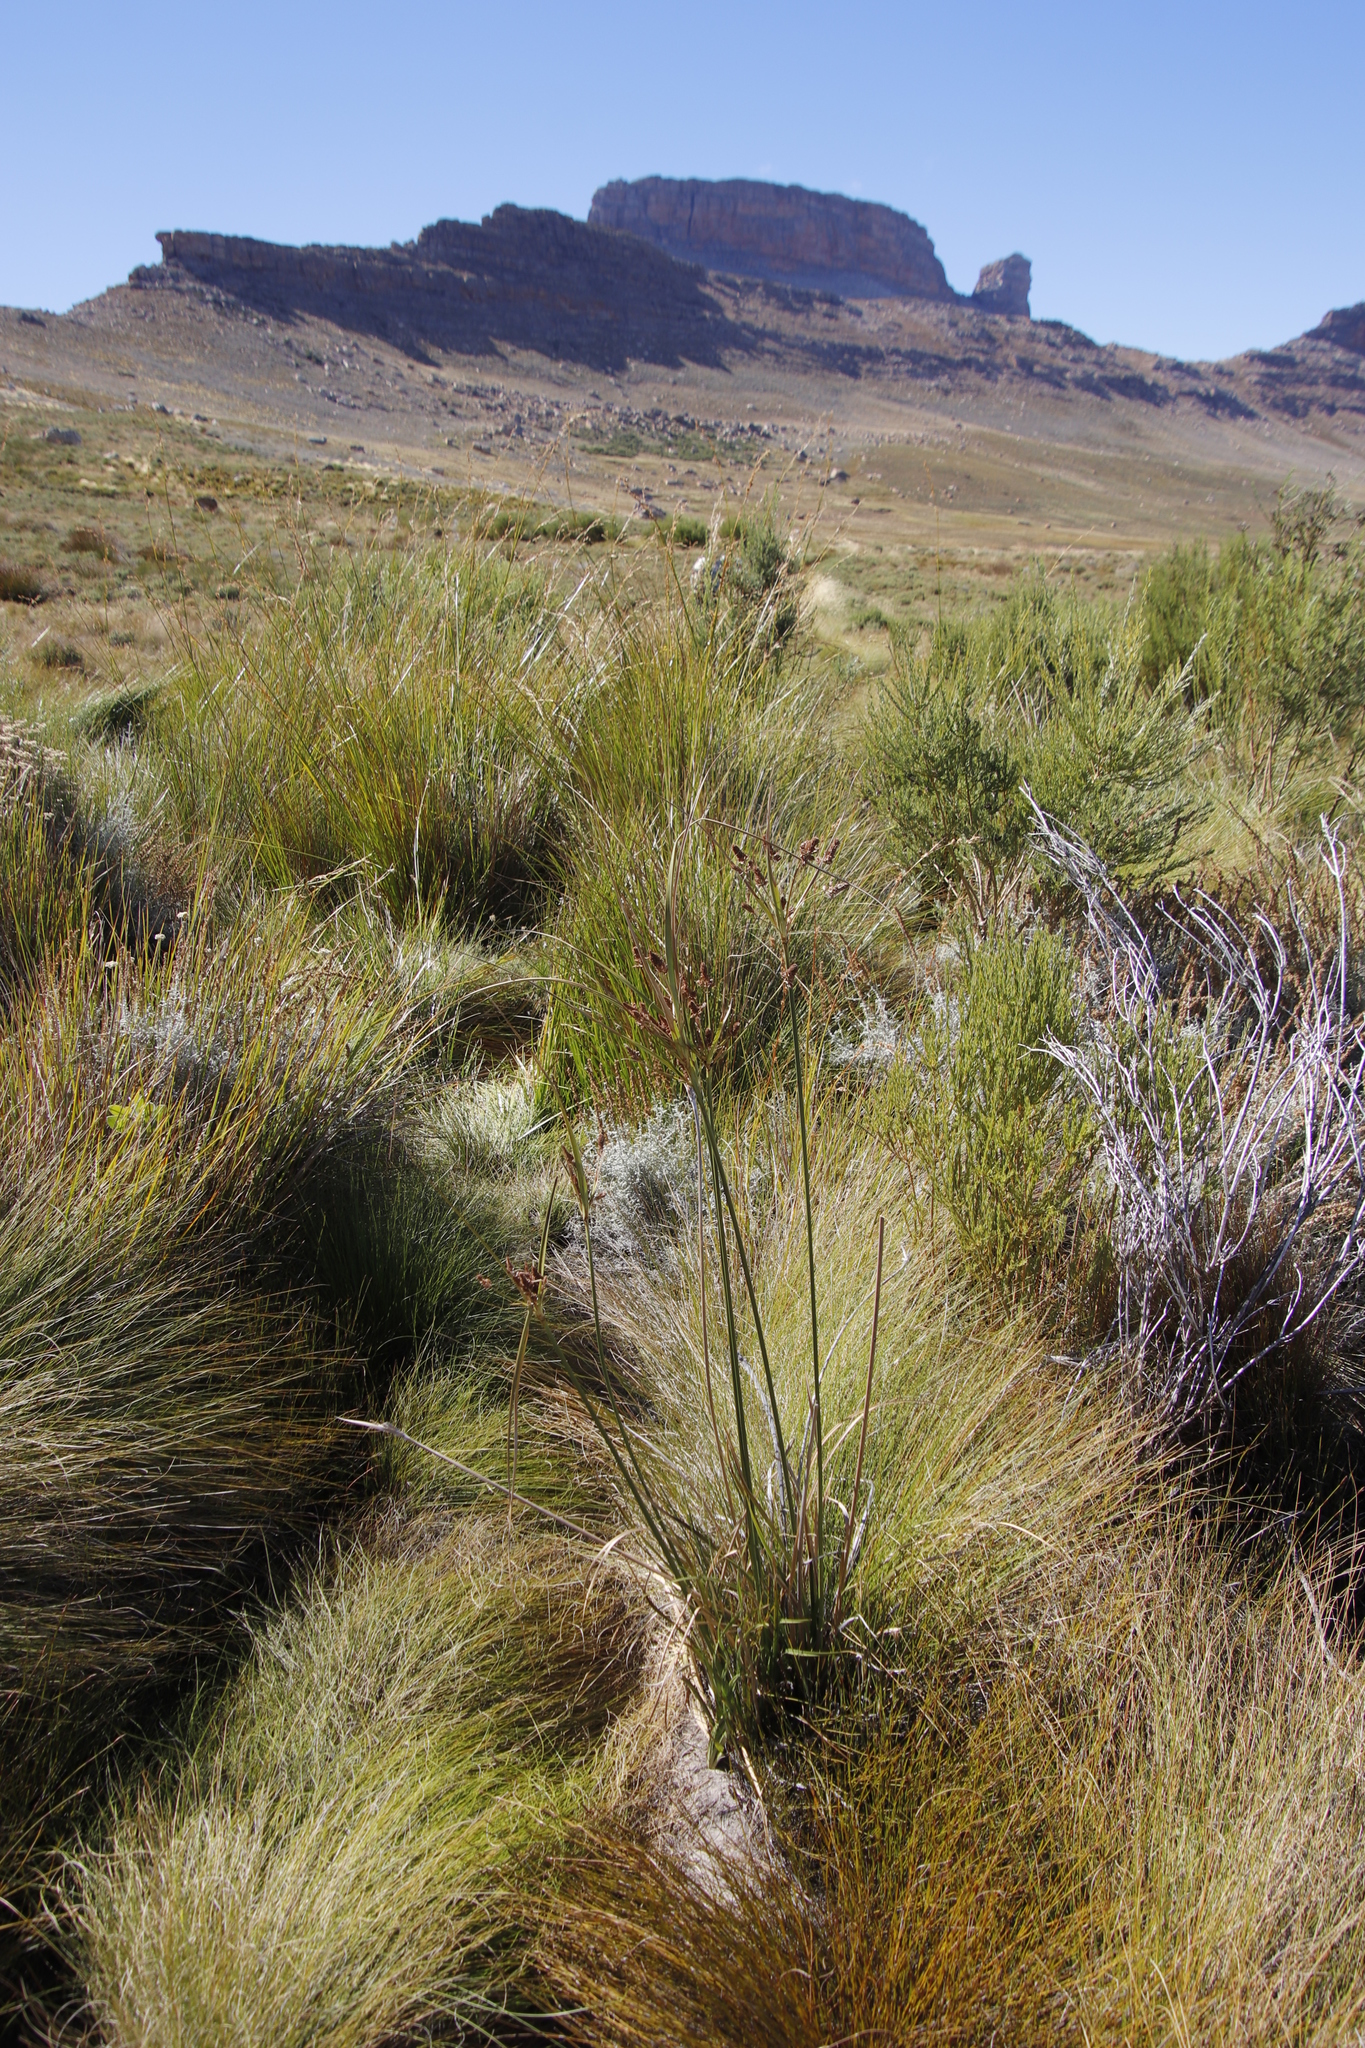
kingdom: Plantae
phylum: Tracheophyta
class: Liliopsida
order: Poales
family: Cyperaceae
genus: Cyperus
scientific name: Cyperus thunbergii
